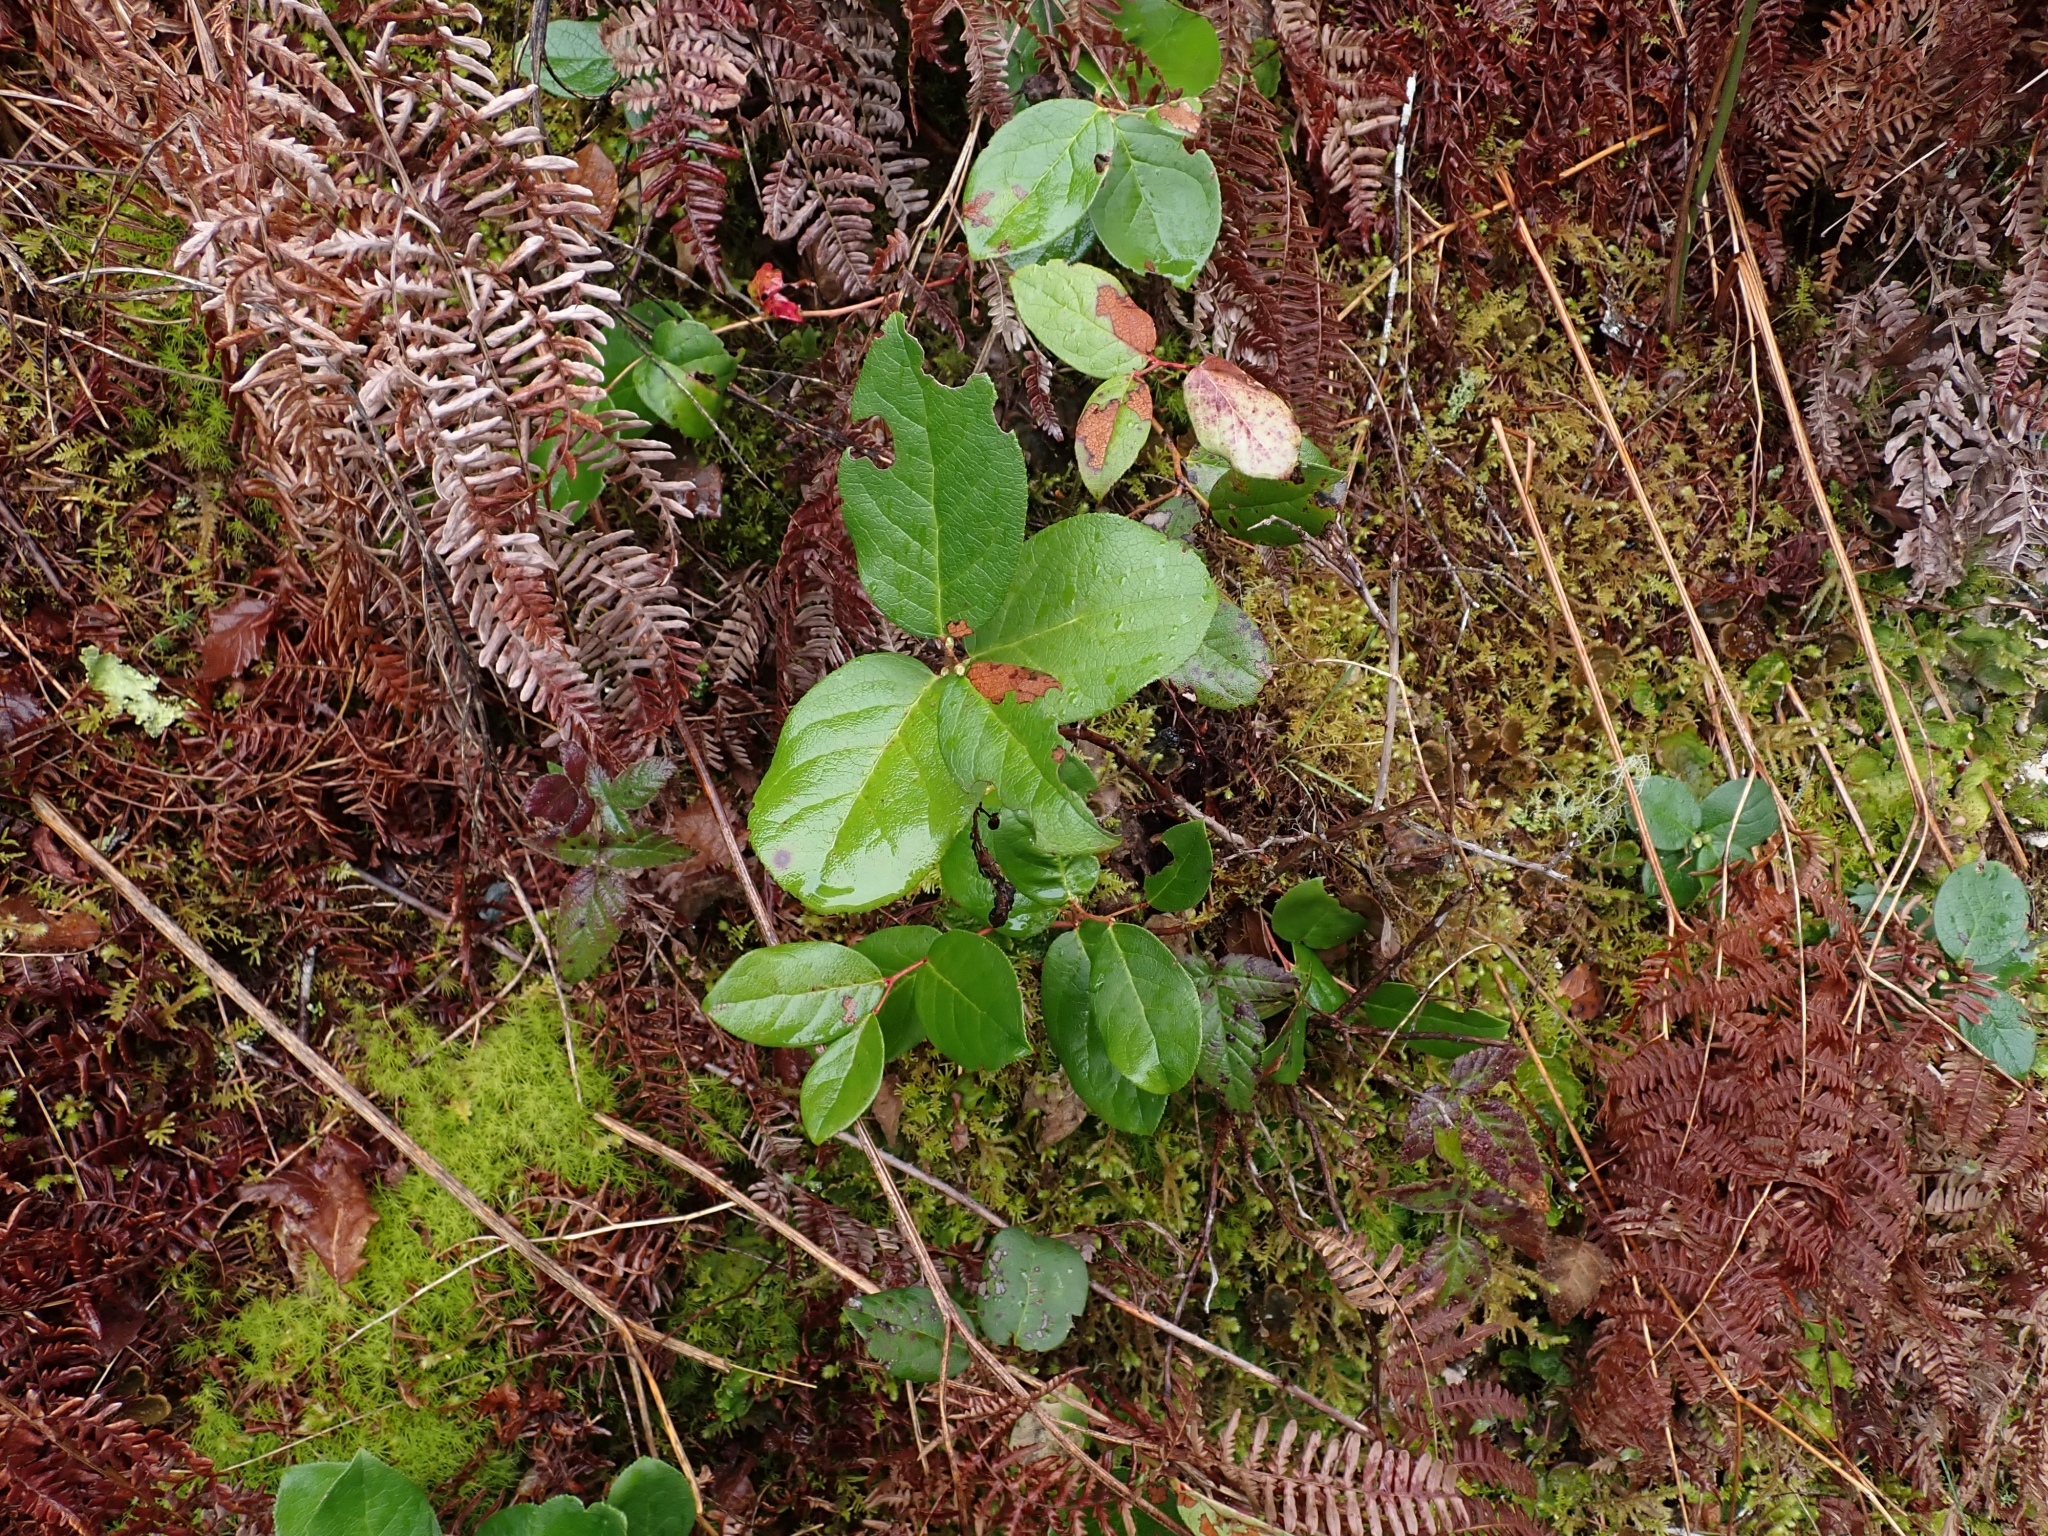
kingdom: Plantae
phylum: Tracheophyta
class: Magnoliopsida
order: Ericales
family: Ericaceae
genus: Gaultheria
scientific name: Gaultheria shallon
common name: Shallon
